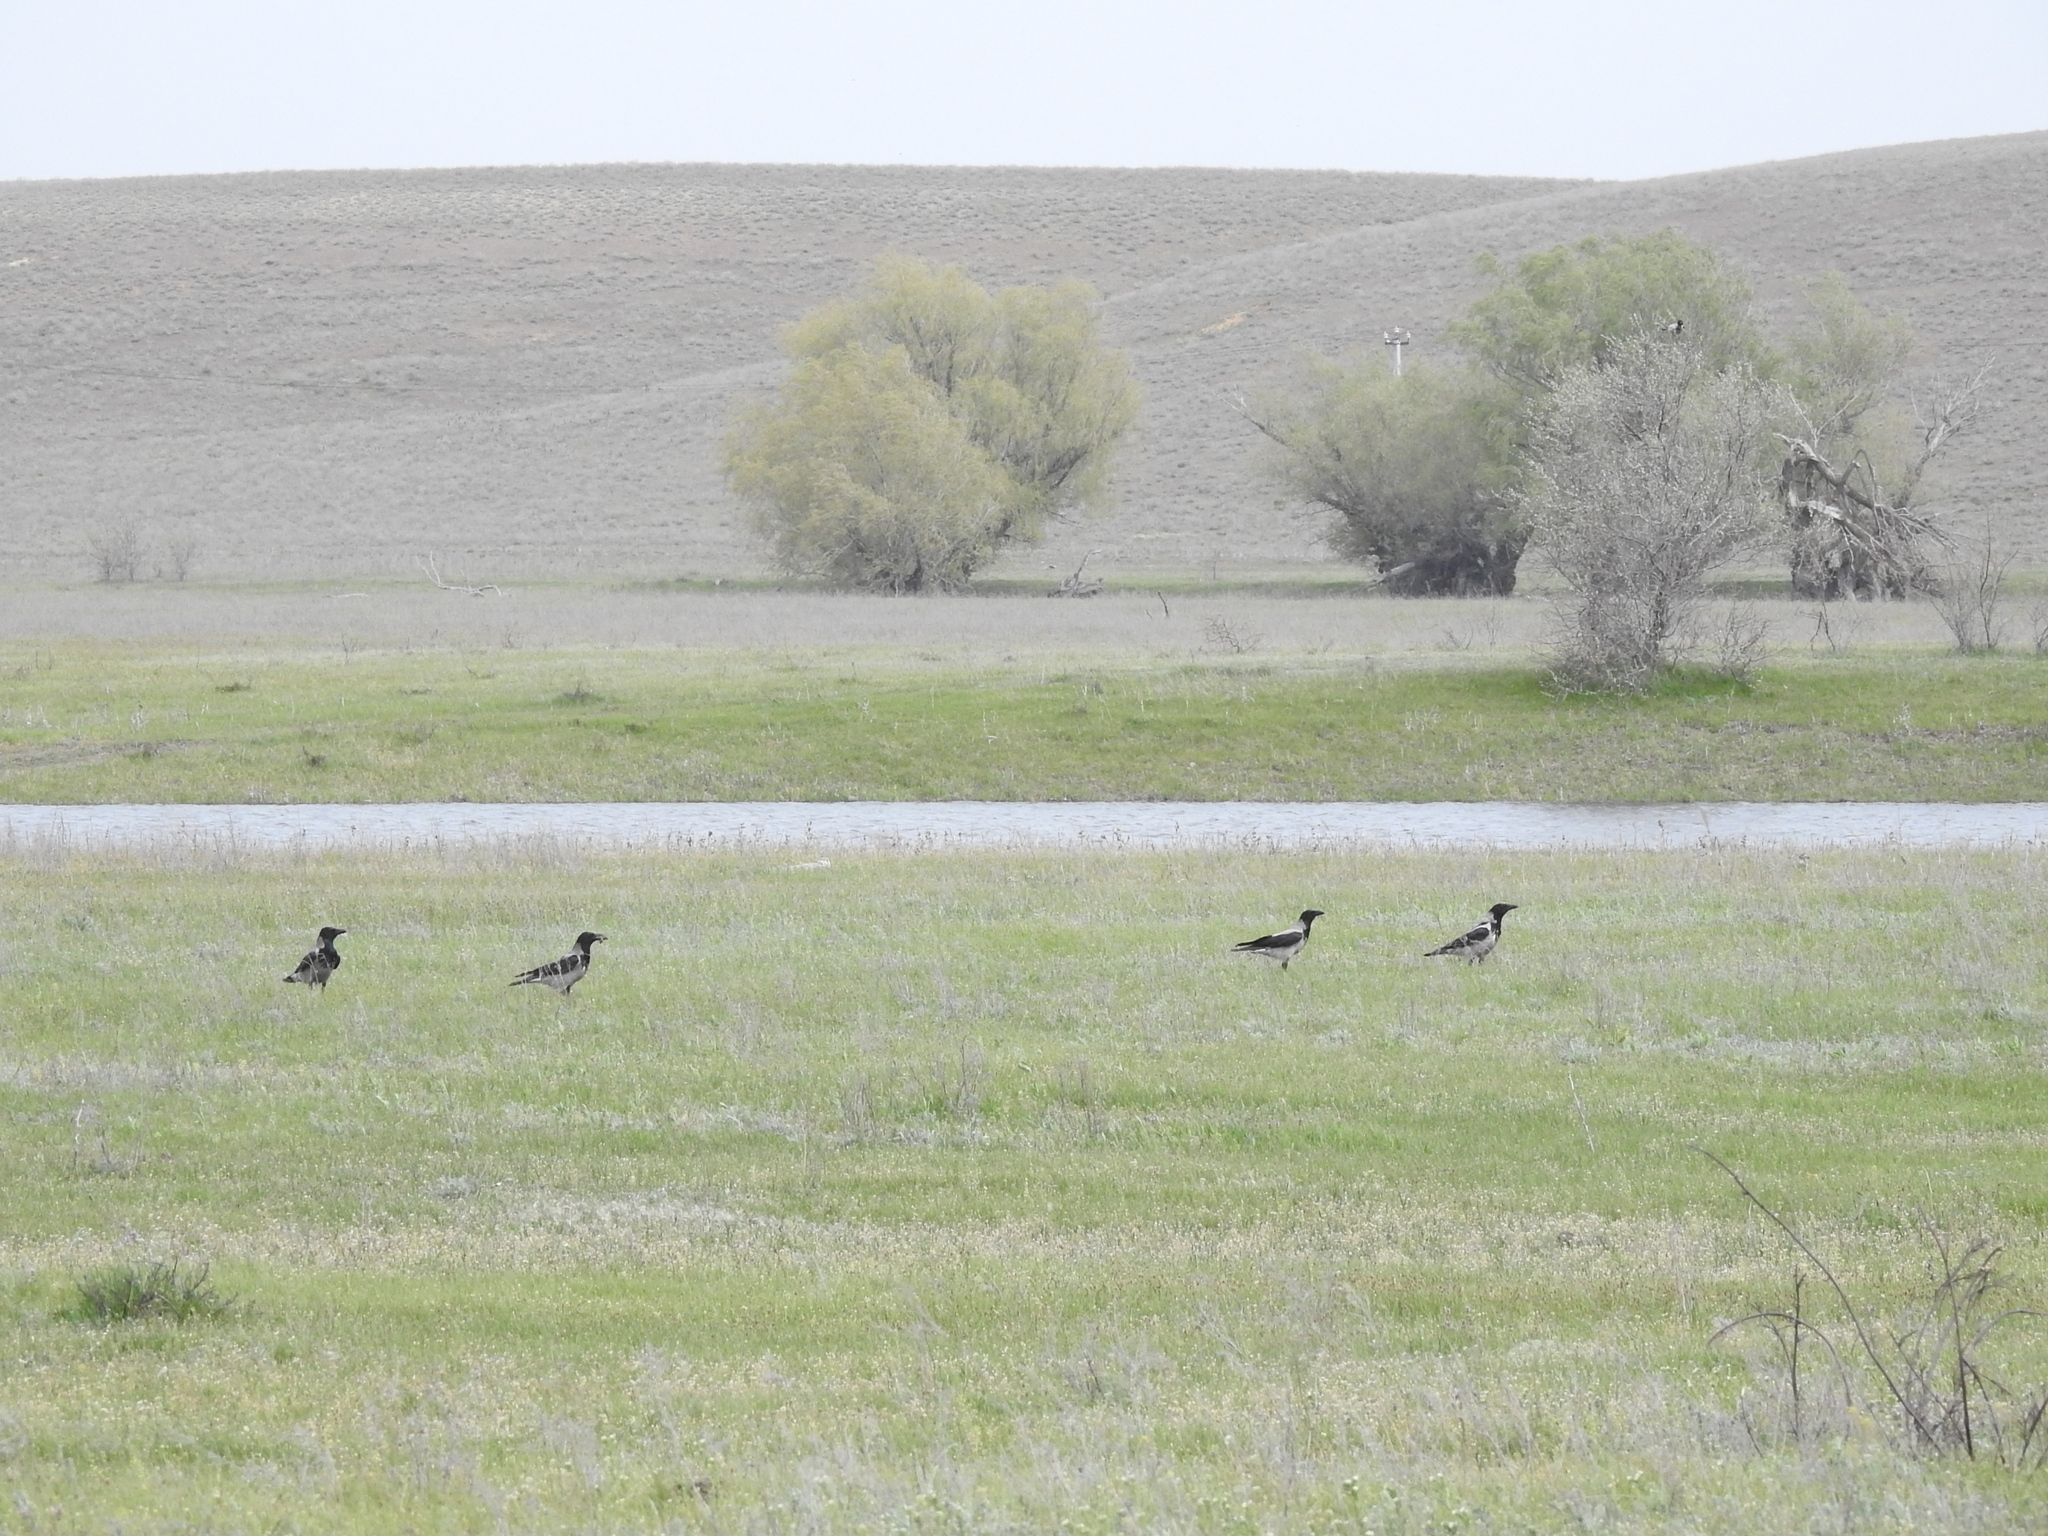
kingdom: Animalia
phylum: Chordata
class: Aves
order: Passeriformes
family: Corvidae
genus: Corvus
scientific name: Corvus cornix
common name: Hooded crow
